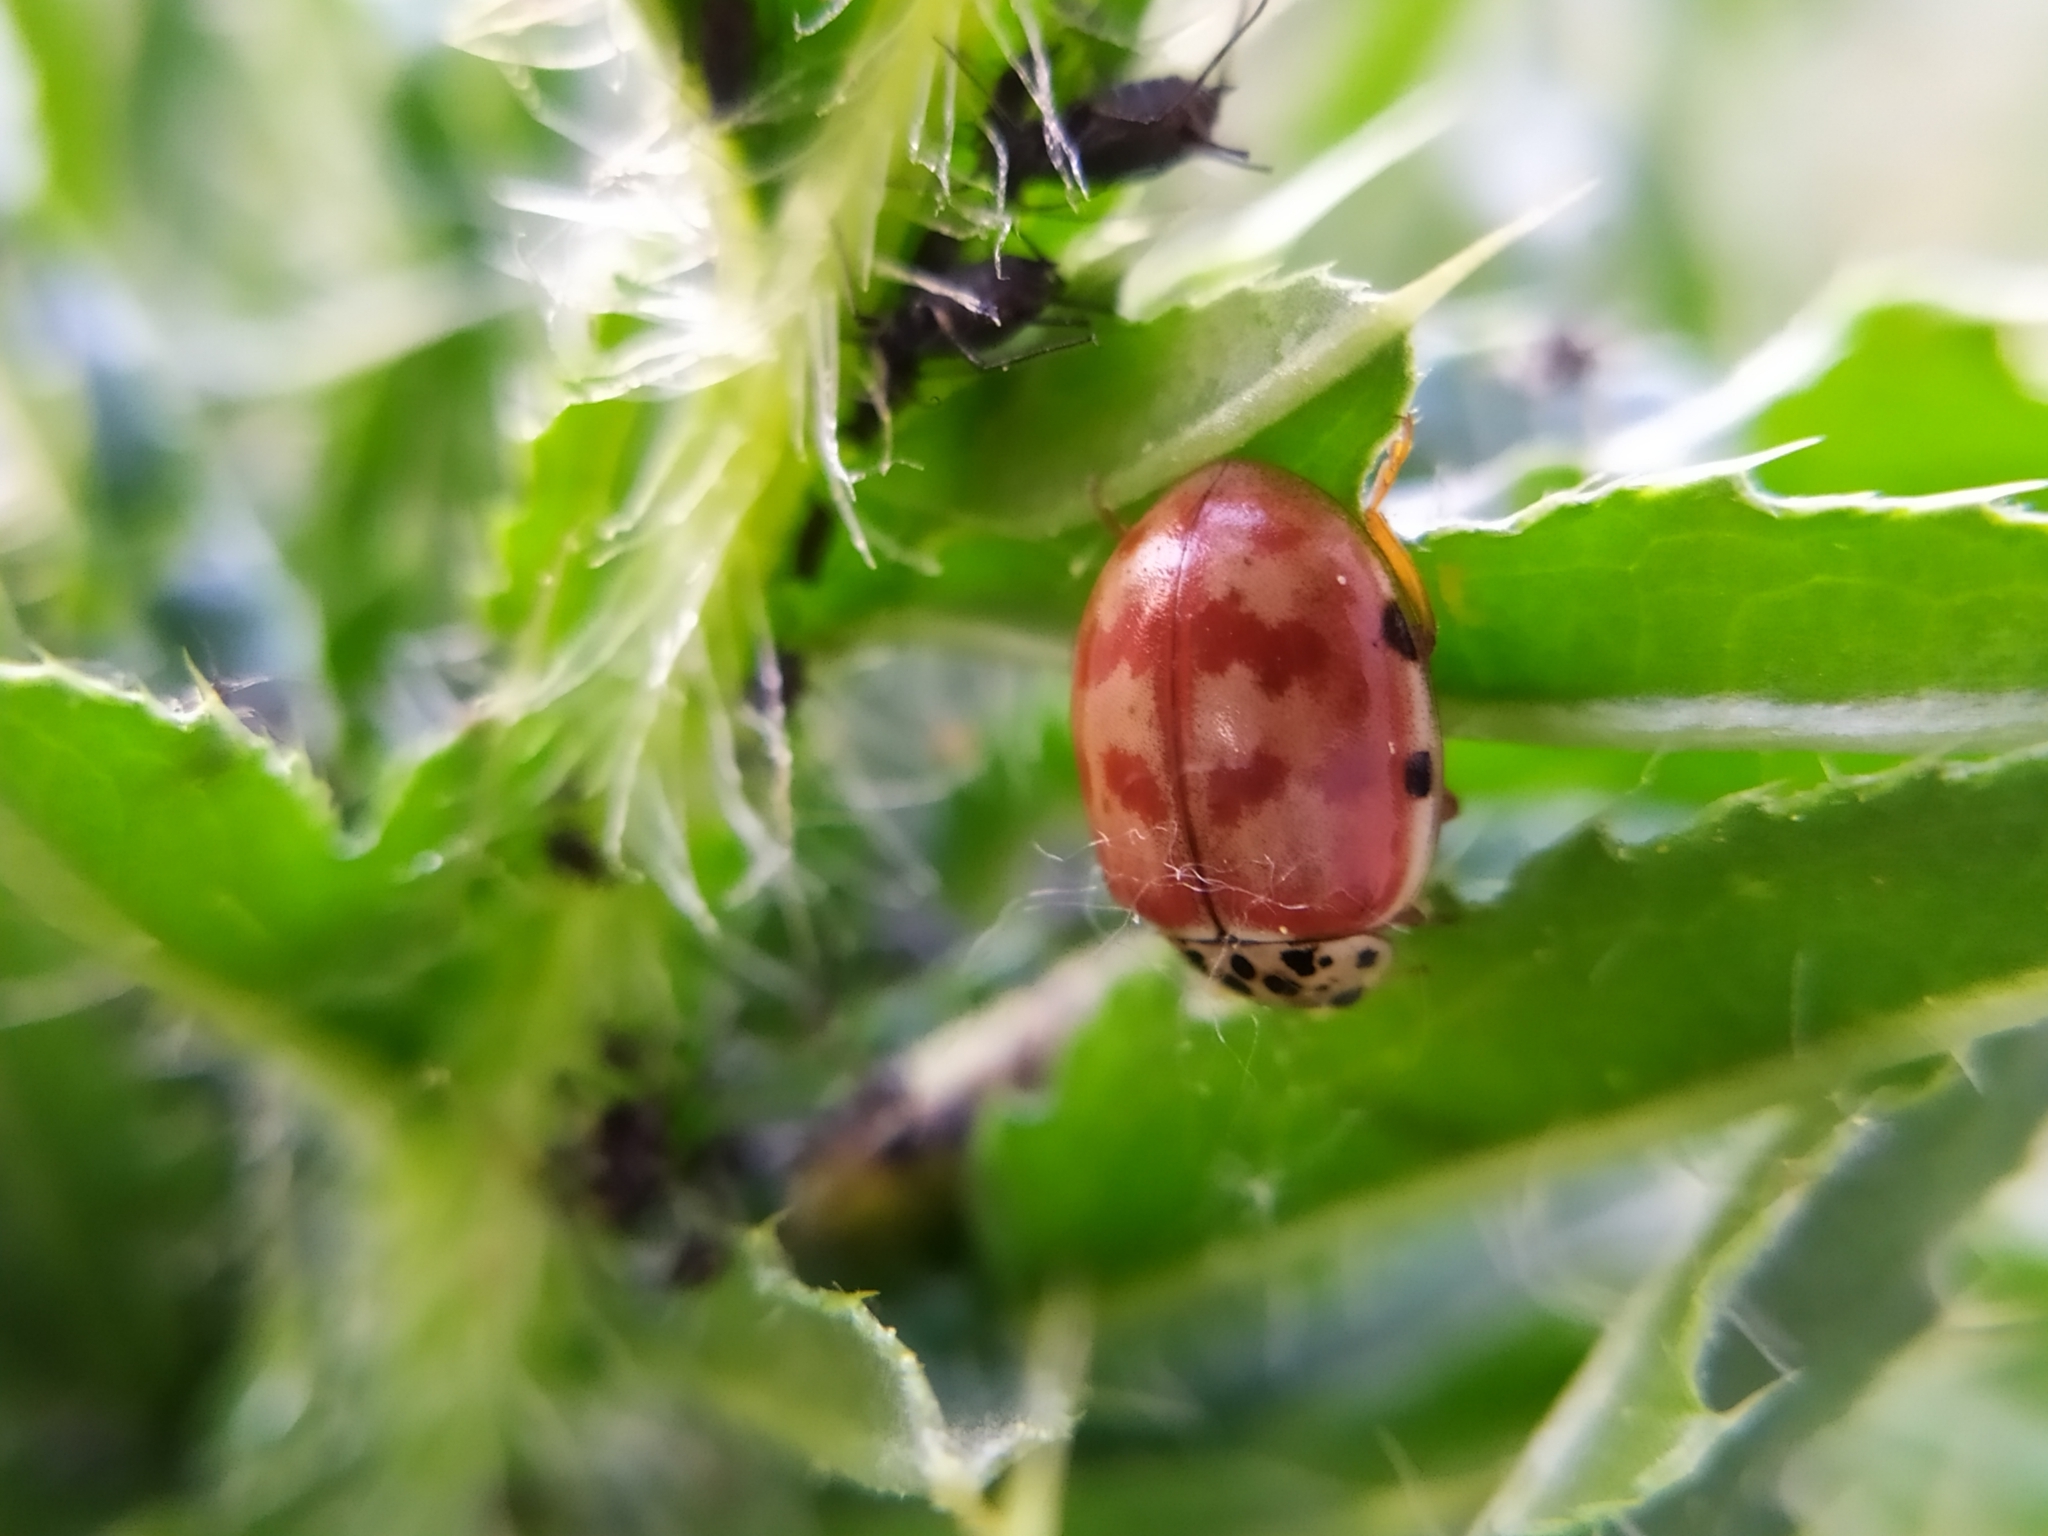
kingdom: Animalia
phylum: Arthropoda
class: Insecta
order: Coleoptera
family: Coccinellidae
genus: Harmonia
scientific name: Harmonia quadripunctata
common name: Cream-streaked ladybird
